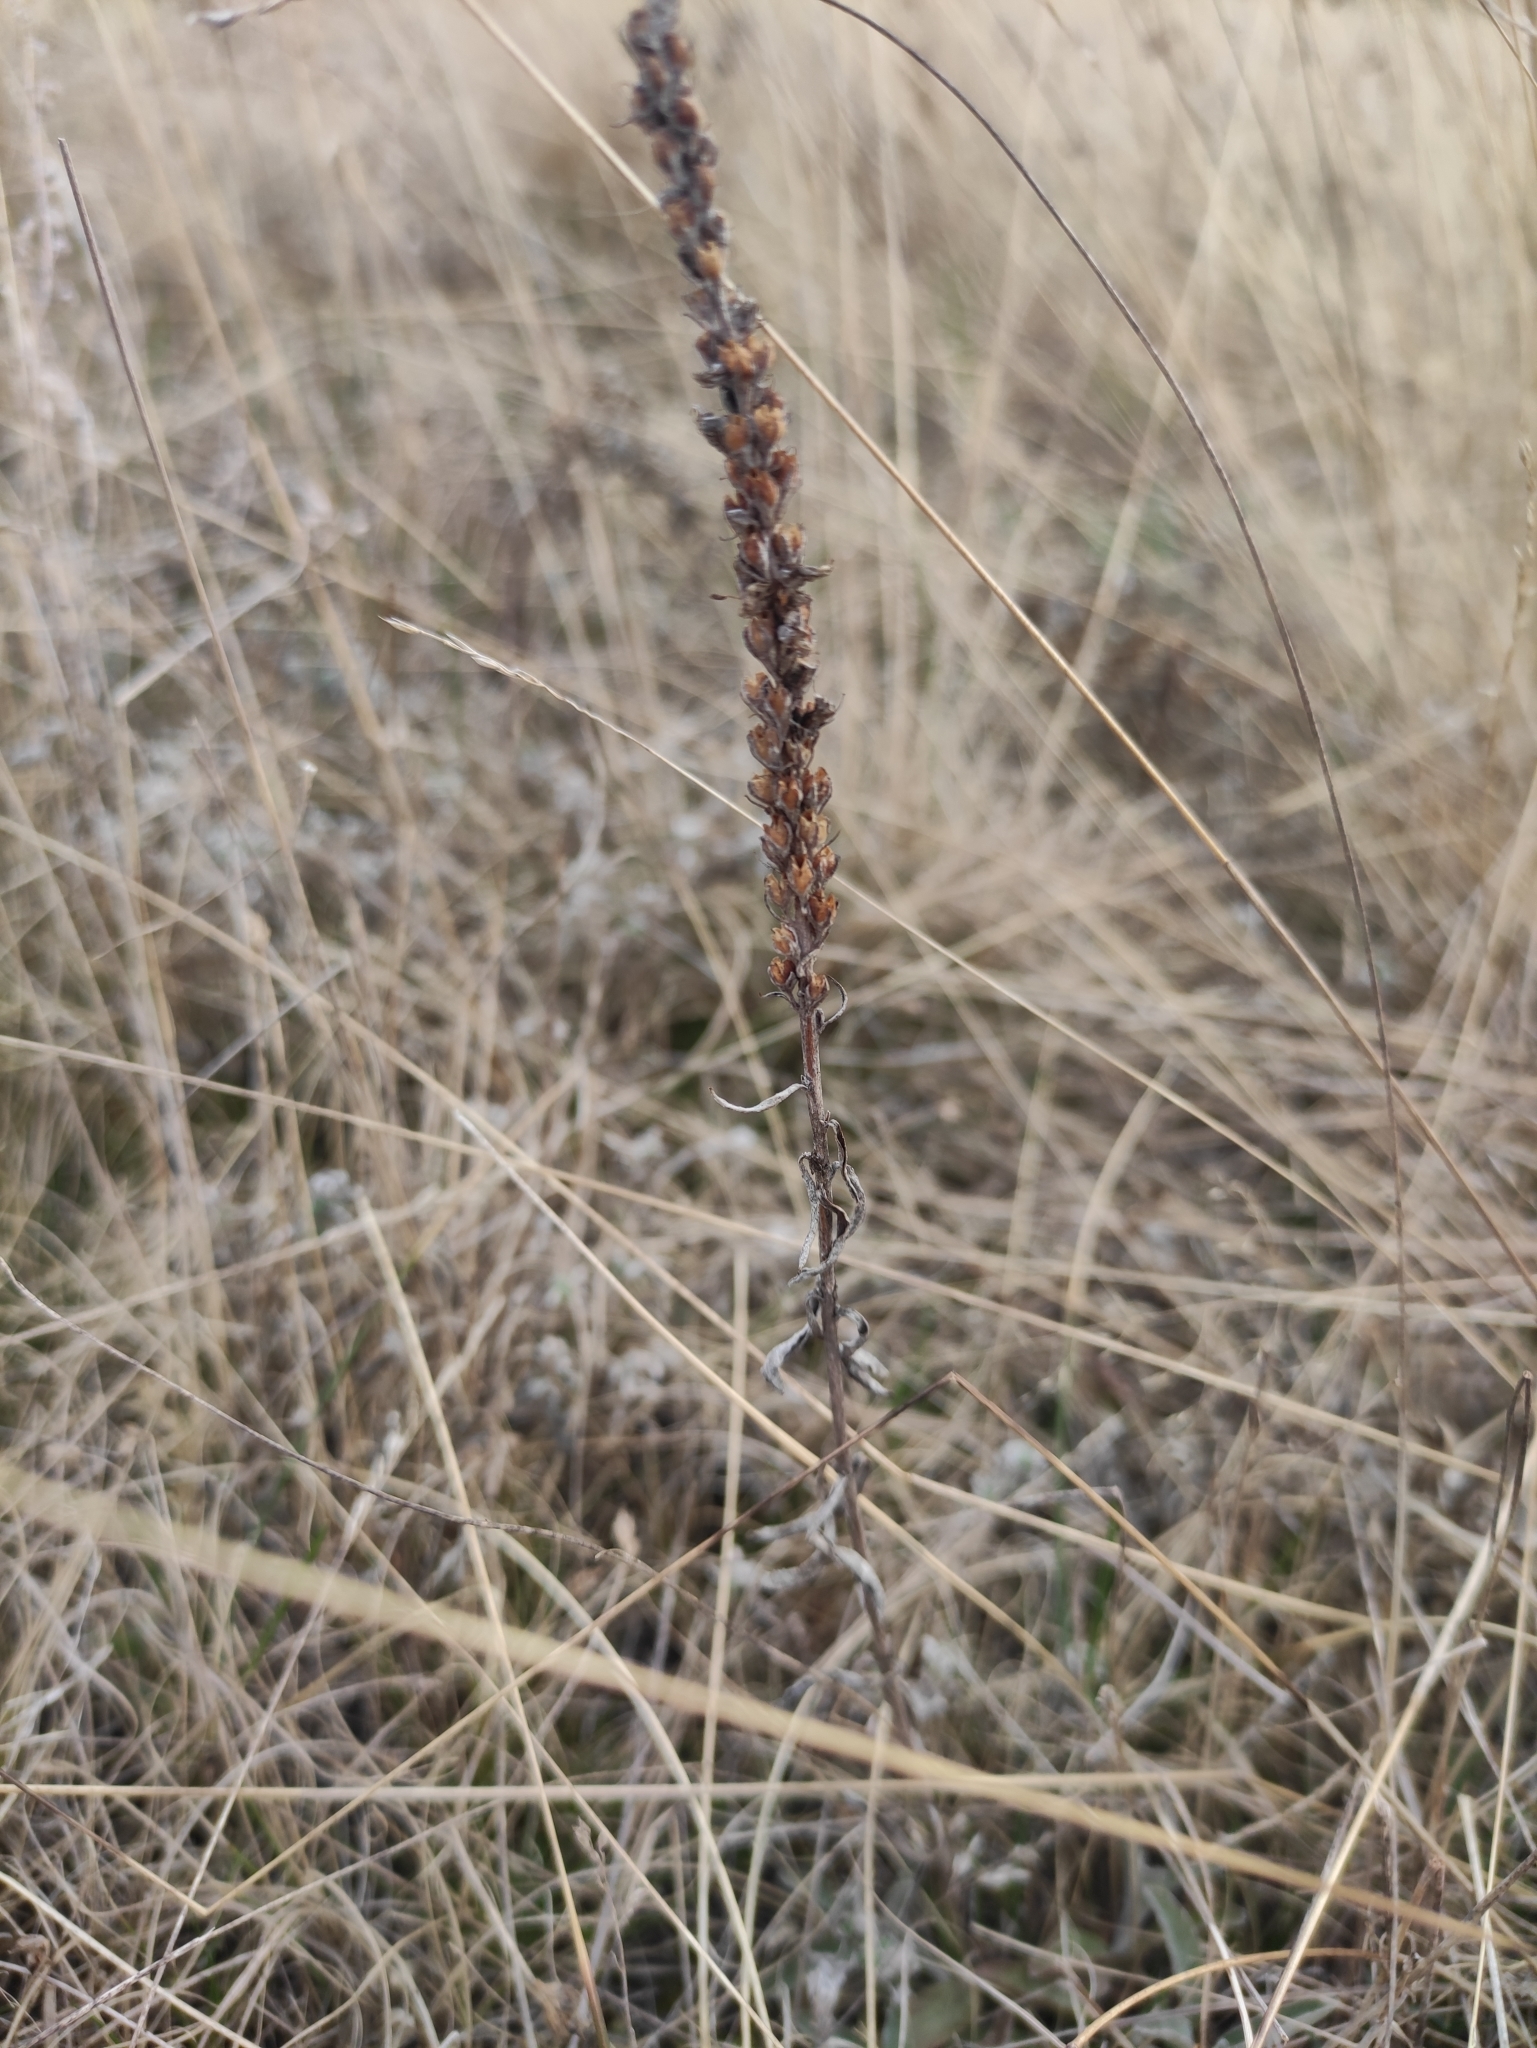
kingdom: Plantae
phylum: Tracheophyta
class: Magnoliopsida
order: Lamiales
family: Plantaginaceae
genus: Veronica
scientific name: Veronica incana
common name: Silver speedwell
